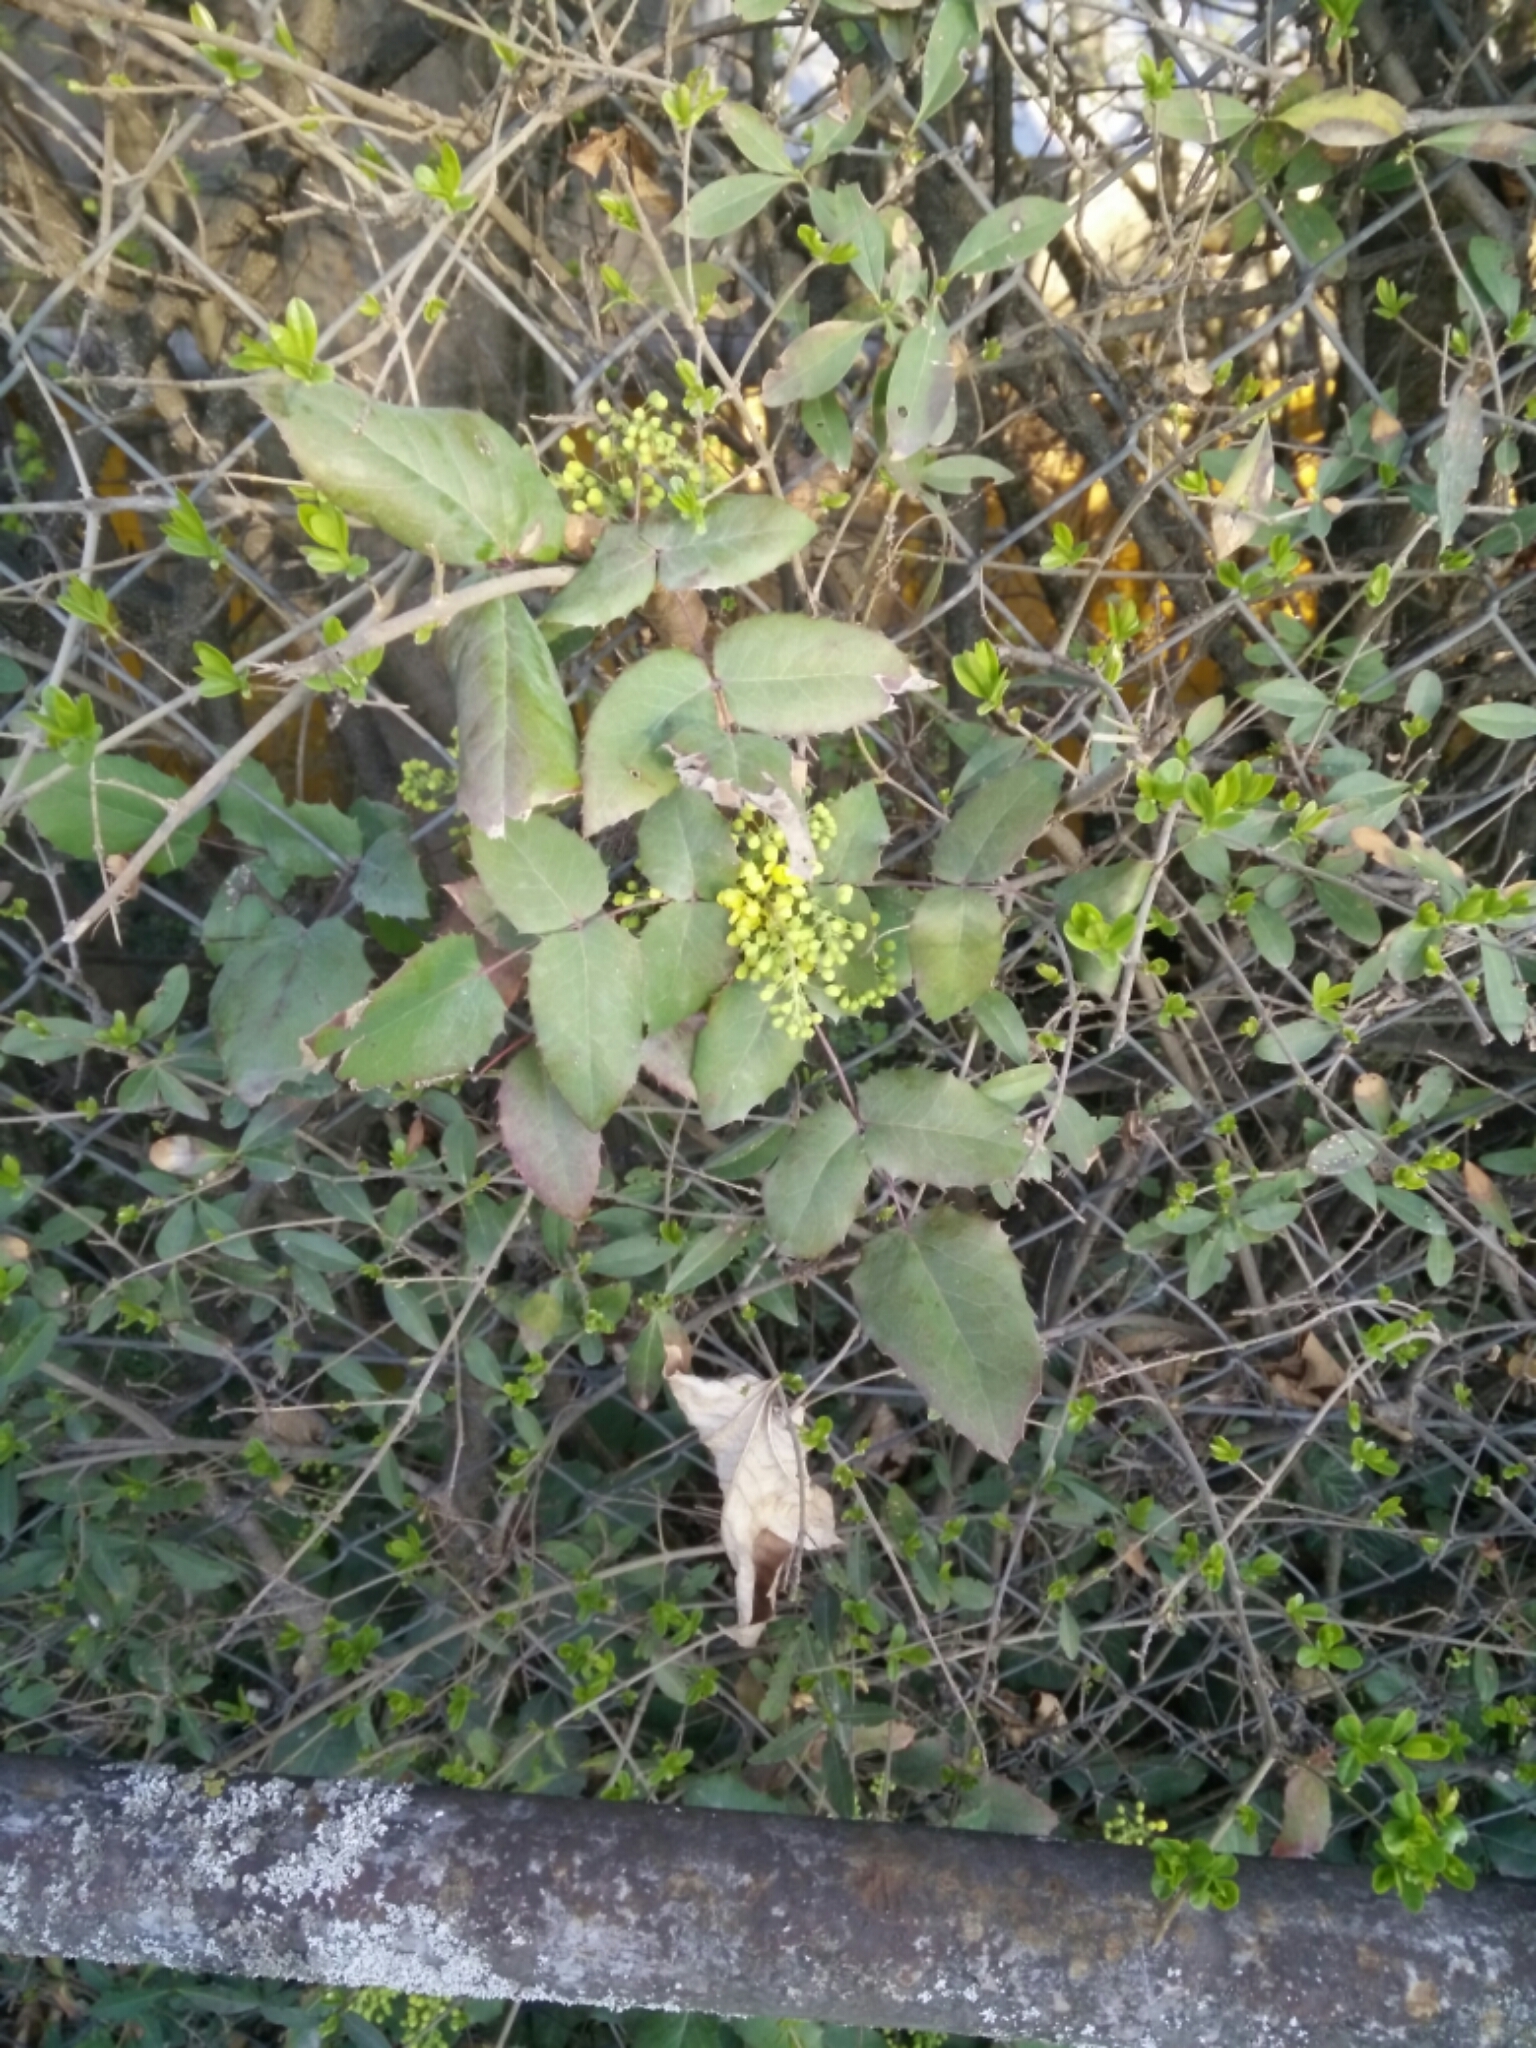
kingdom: Plantae
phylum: Tracheophyta
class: Magnoliopsida
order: Ranunculales
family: Berberidaceae
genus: Mahonia
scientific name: Mahonia aquifolium
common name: Oregon-grape
